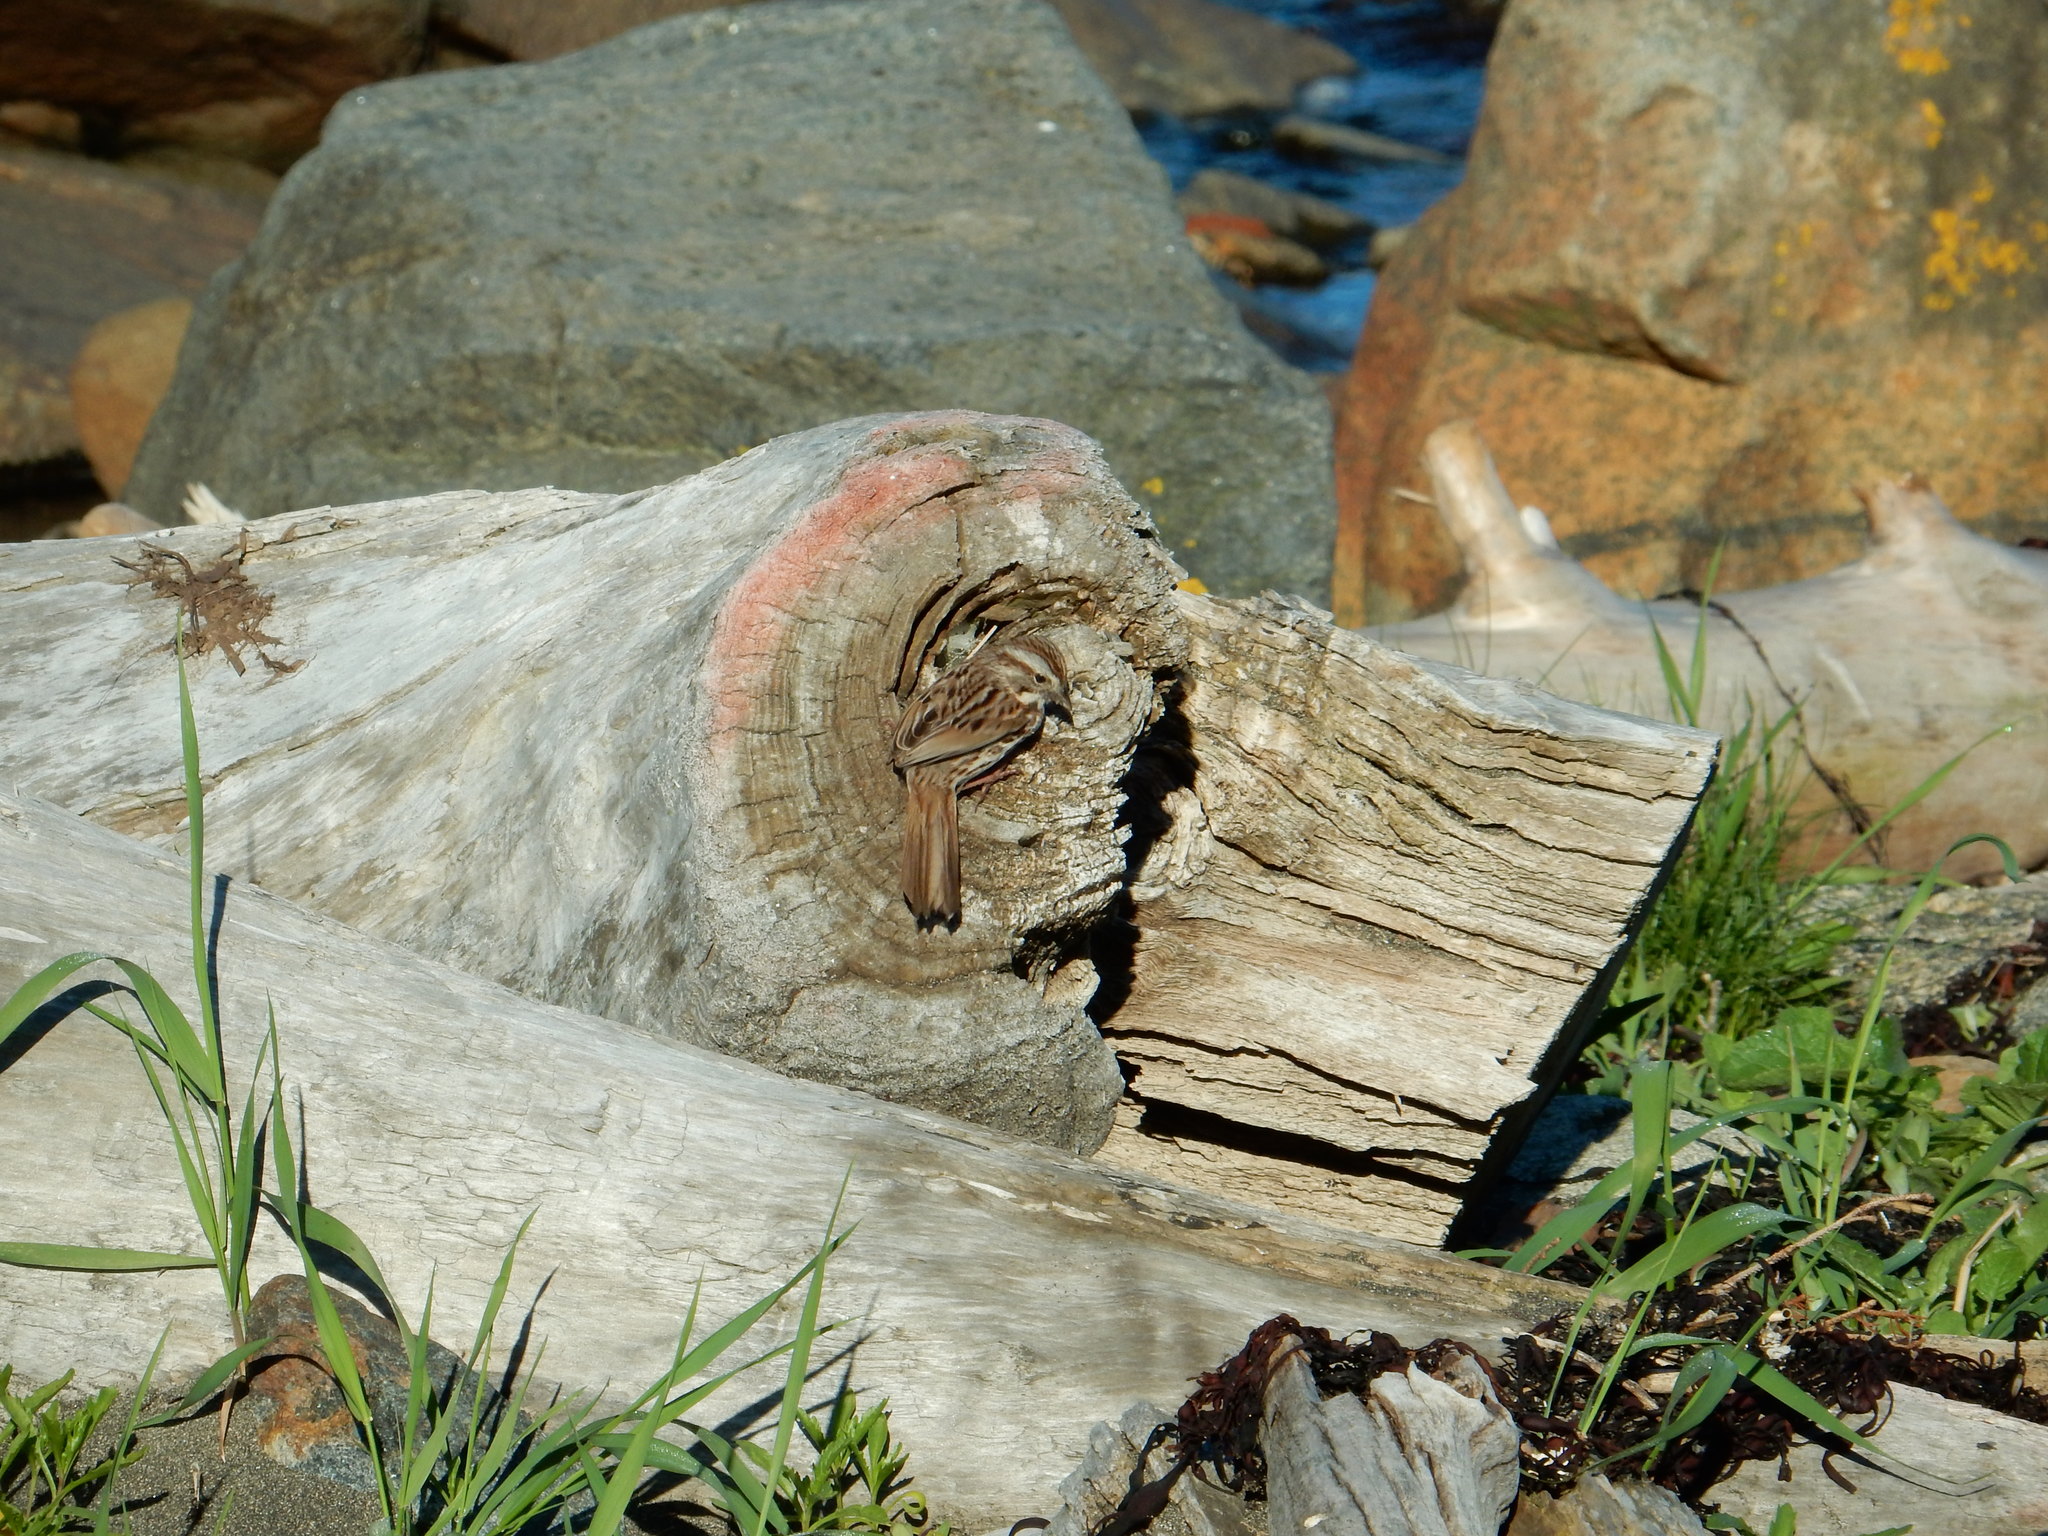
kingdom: Animalia
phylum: Chordata
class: Aves
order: Passeriformes
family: Passerellidae
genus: Melospiza
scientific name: Melospiza melodia
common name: Song sparrow
